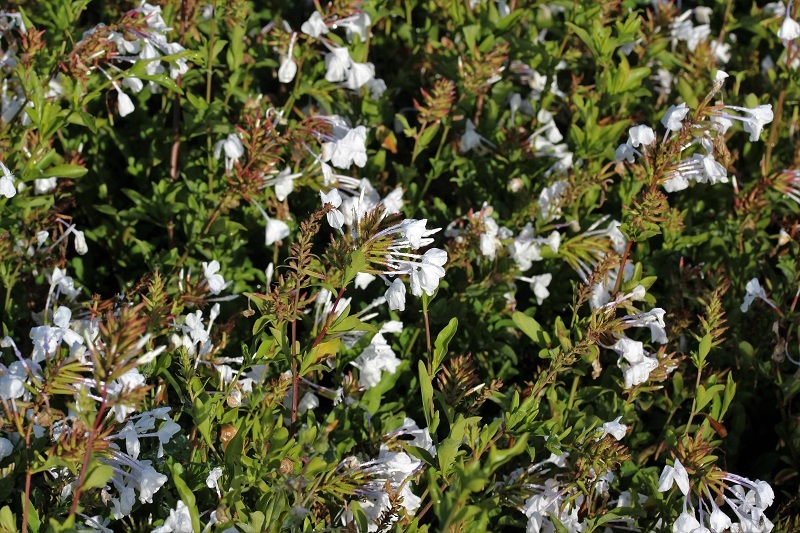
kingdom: Plantae
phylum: Tracheophyta
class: Magnoliopsida
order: Caryophyllales
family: Plumbaginaceae
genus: Plumbago
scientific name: Plumbago auriculata
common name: Cape leadwort
